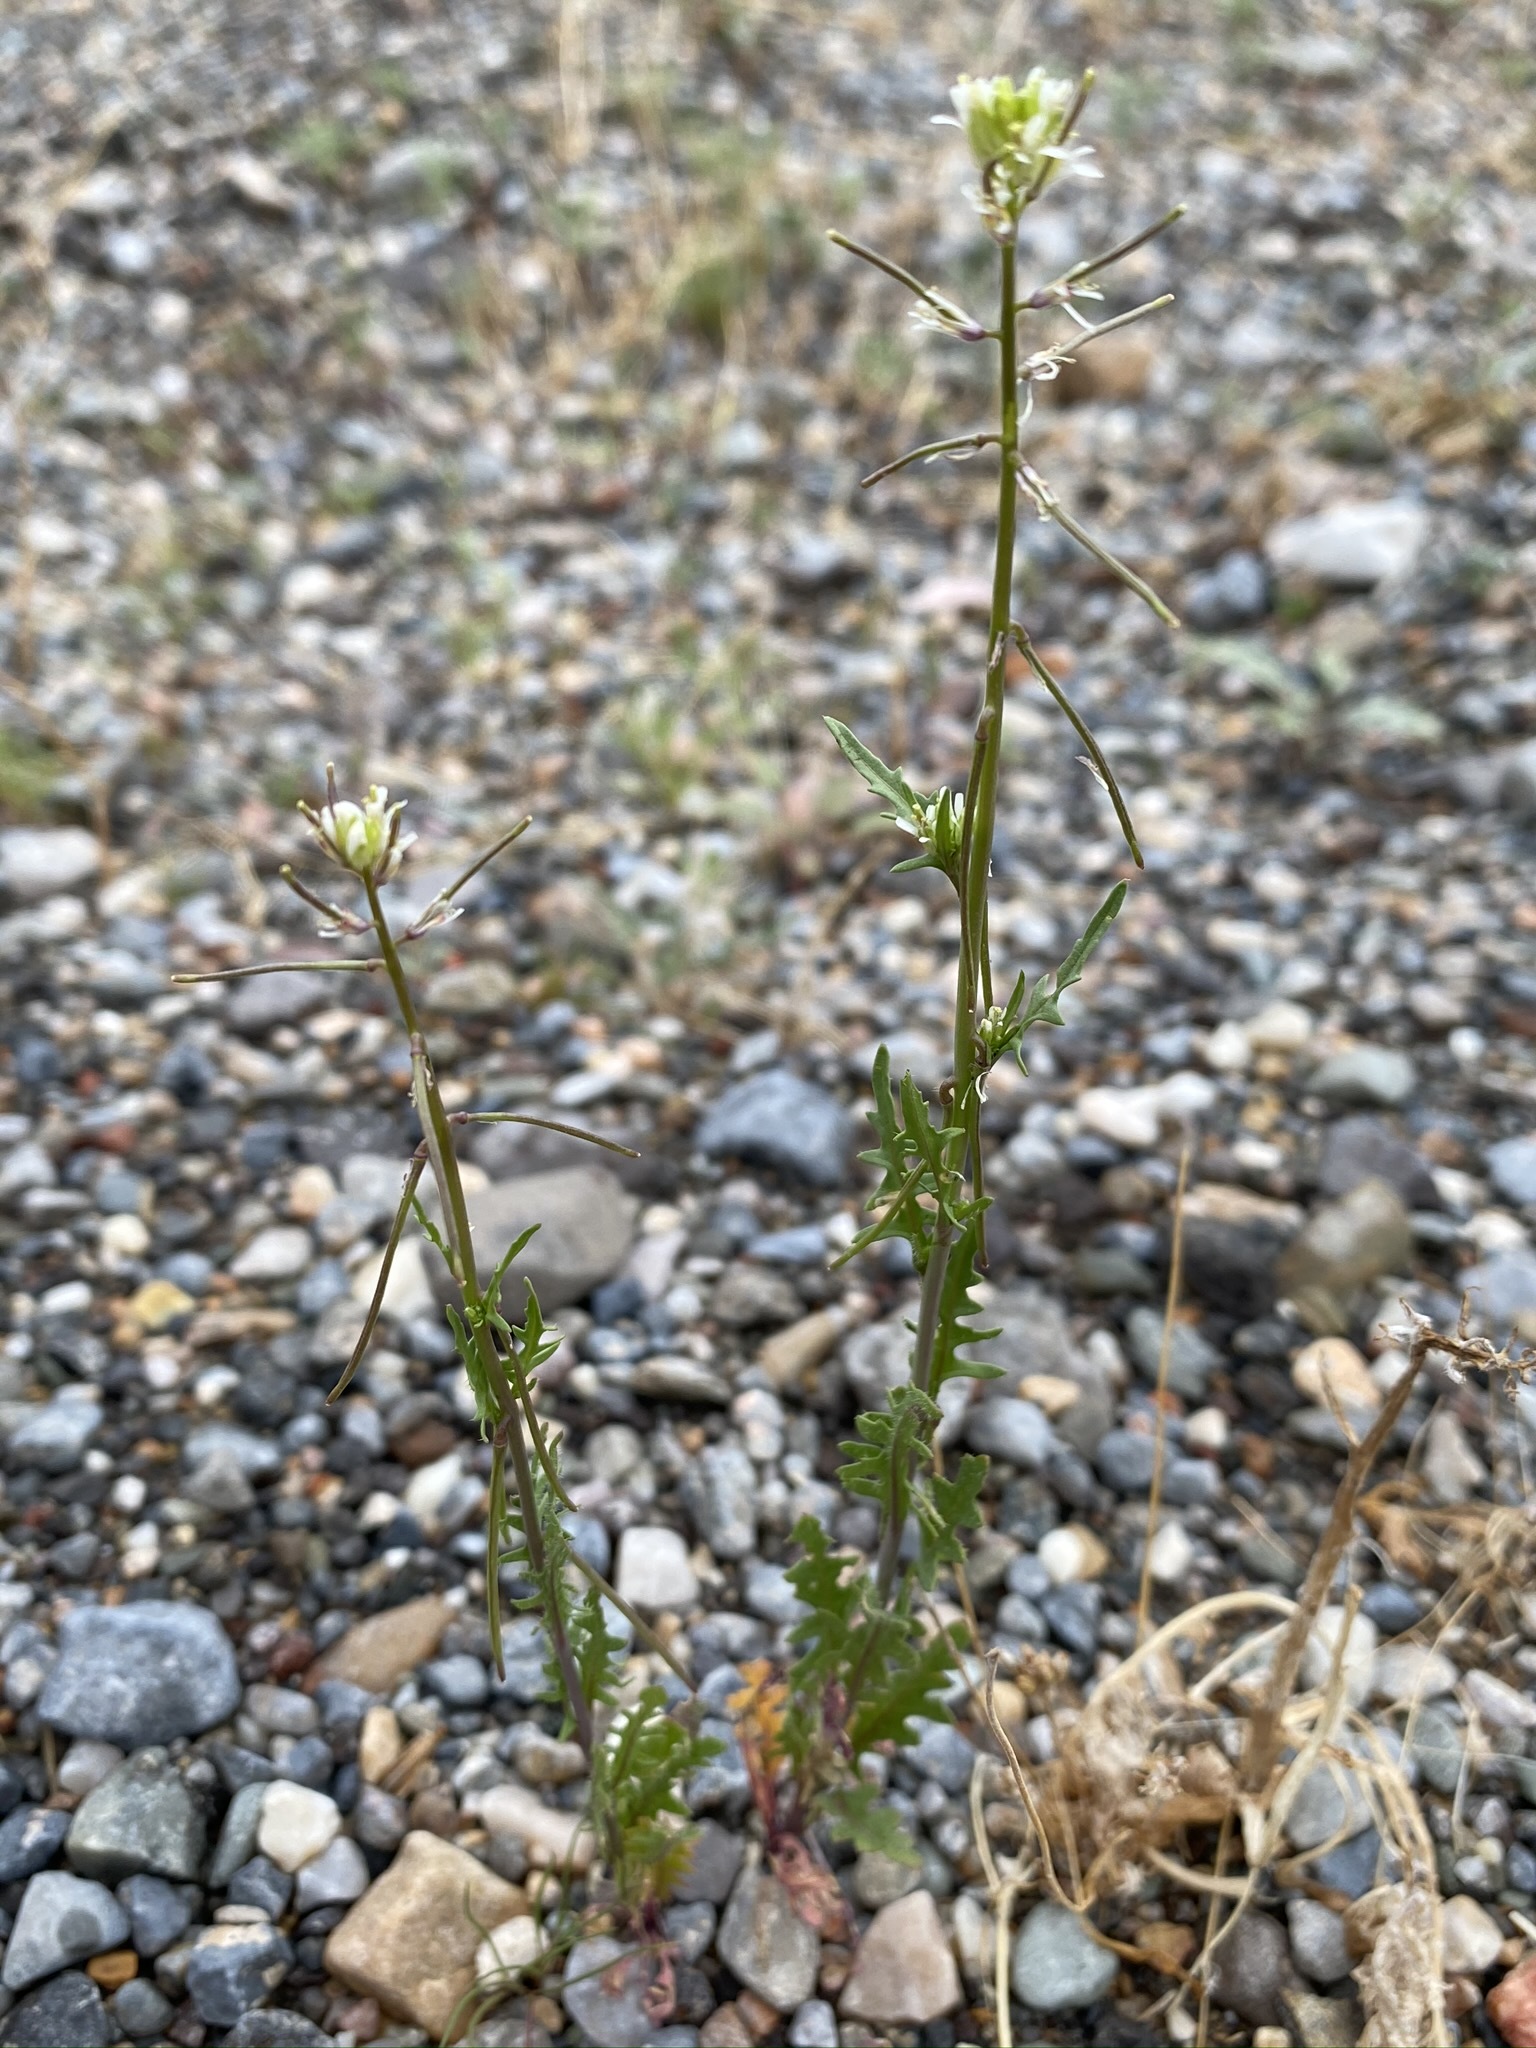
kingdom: Plantae
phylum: Tracheophyta
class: Magnoliopsida
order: Brassicales
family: Brassicaceae
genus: Streptanthus
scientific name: Streptanthus lasiophyllus
